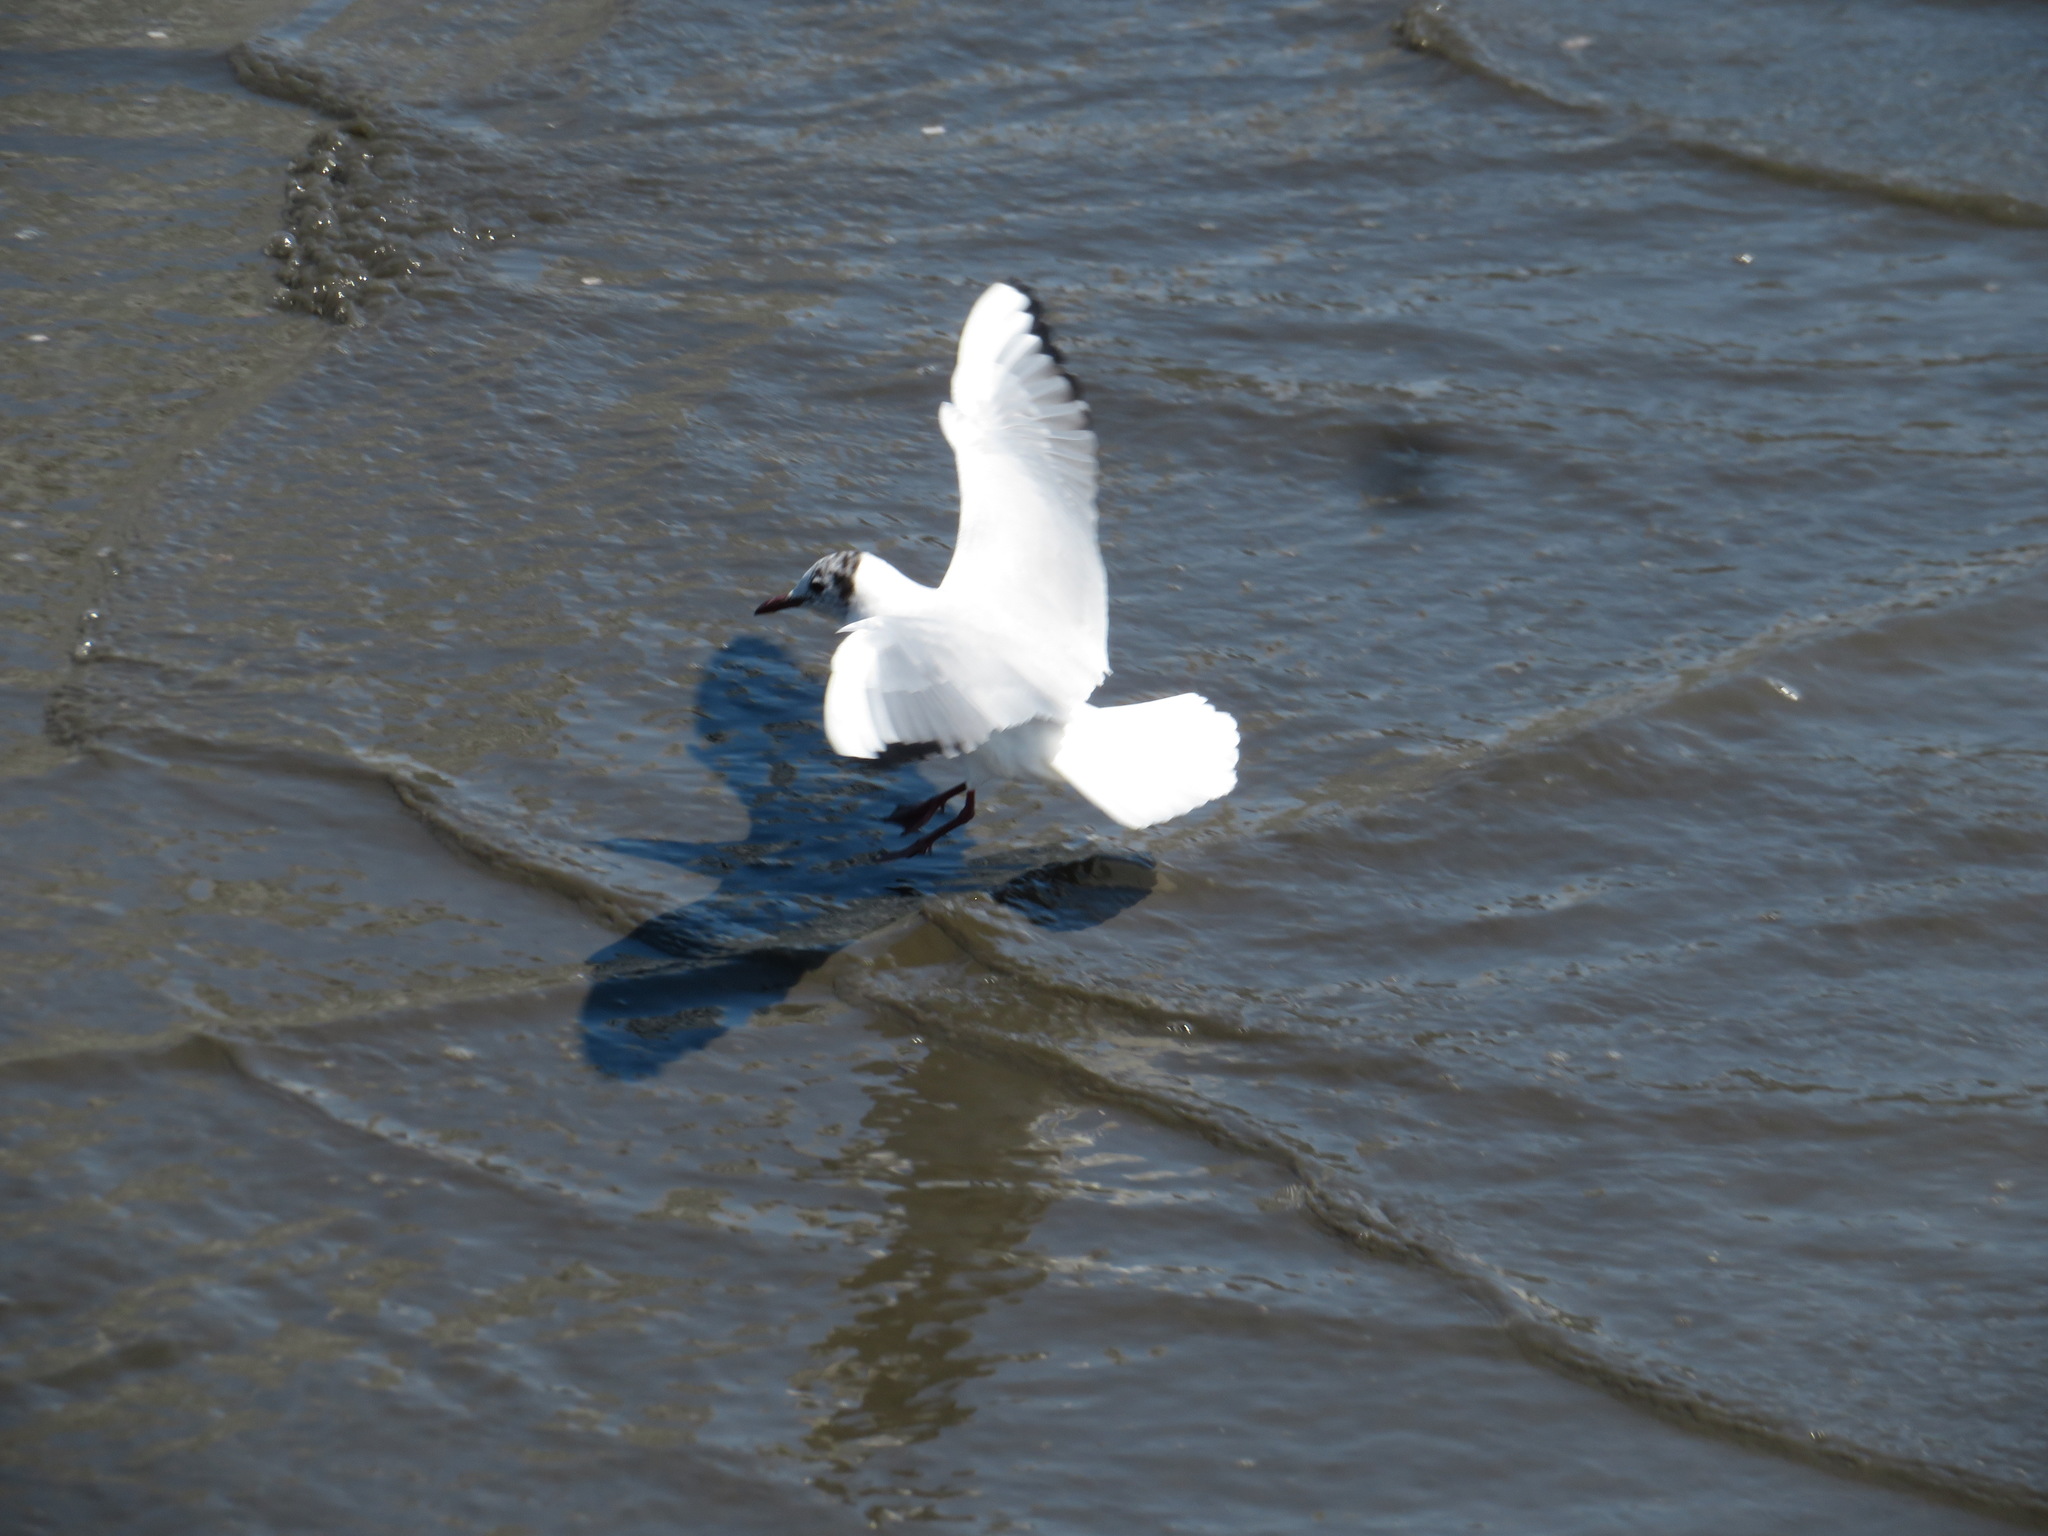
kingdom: Animalia
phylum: Chordata
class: Aves
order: Charadriiformes
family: Laridae
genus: Chroicocephalus
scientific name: Chroicocephalus ridibundus
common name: Black-headed gull
